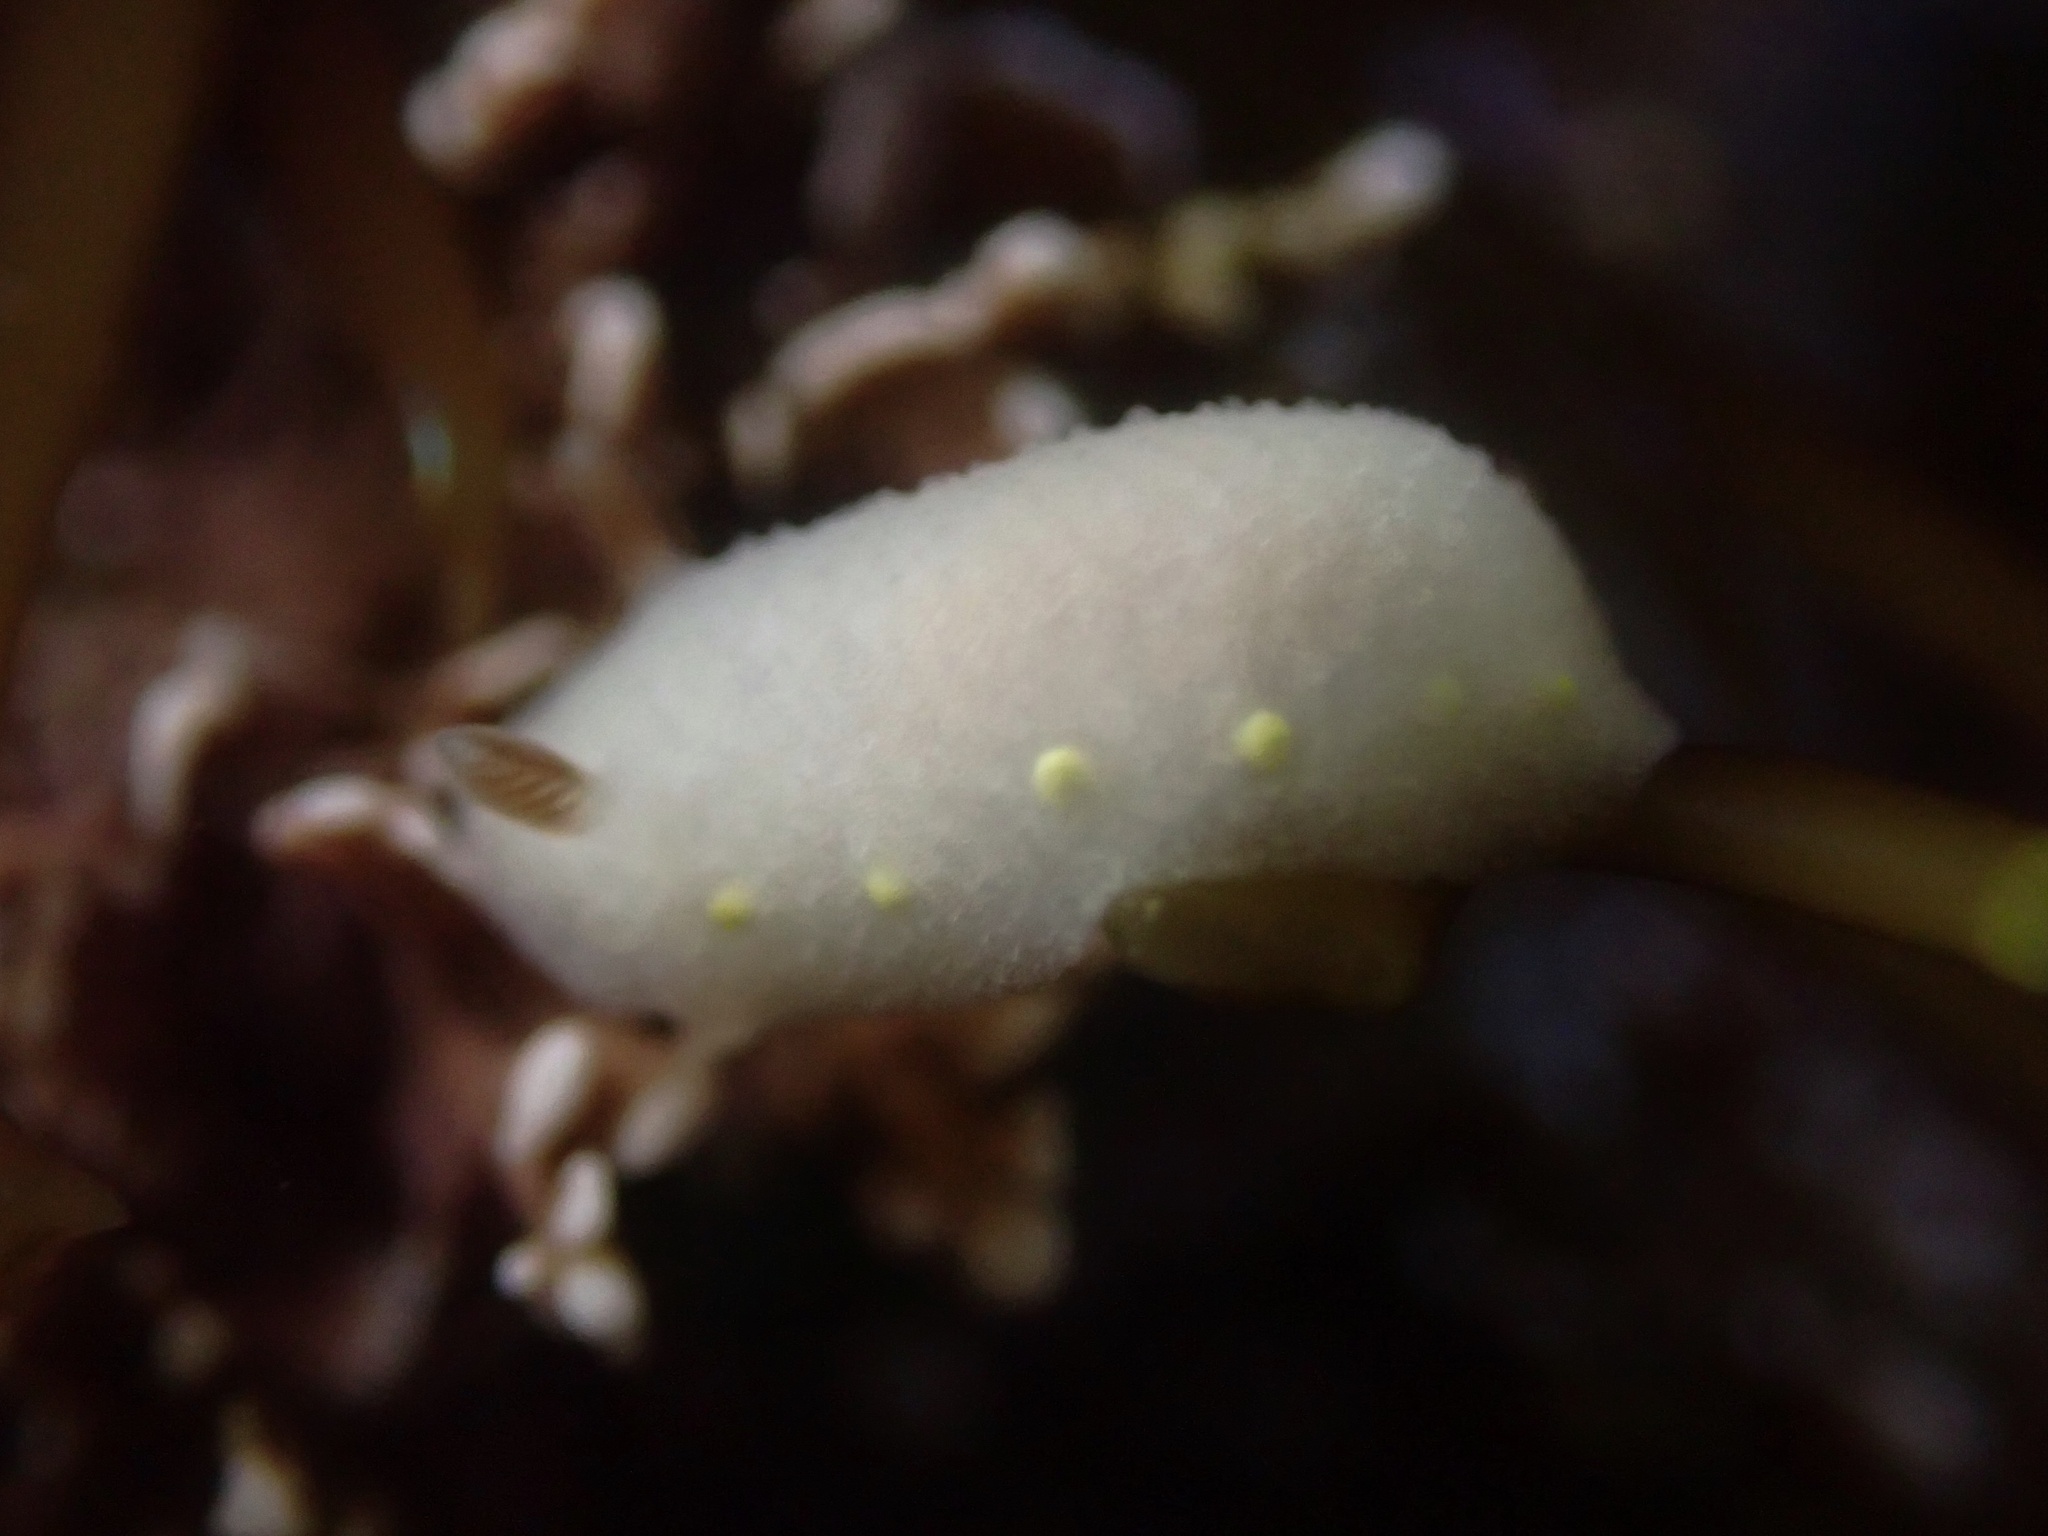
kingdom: Animalia
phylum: Mollusca
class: Gastropoda
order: Nudibranchia
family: Cadlinidae
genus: Cadlina
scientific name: Cadlina flavomaculata
